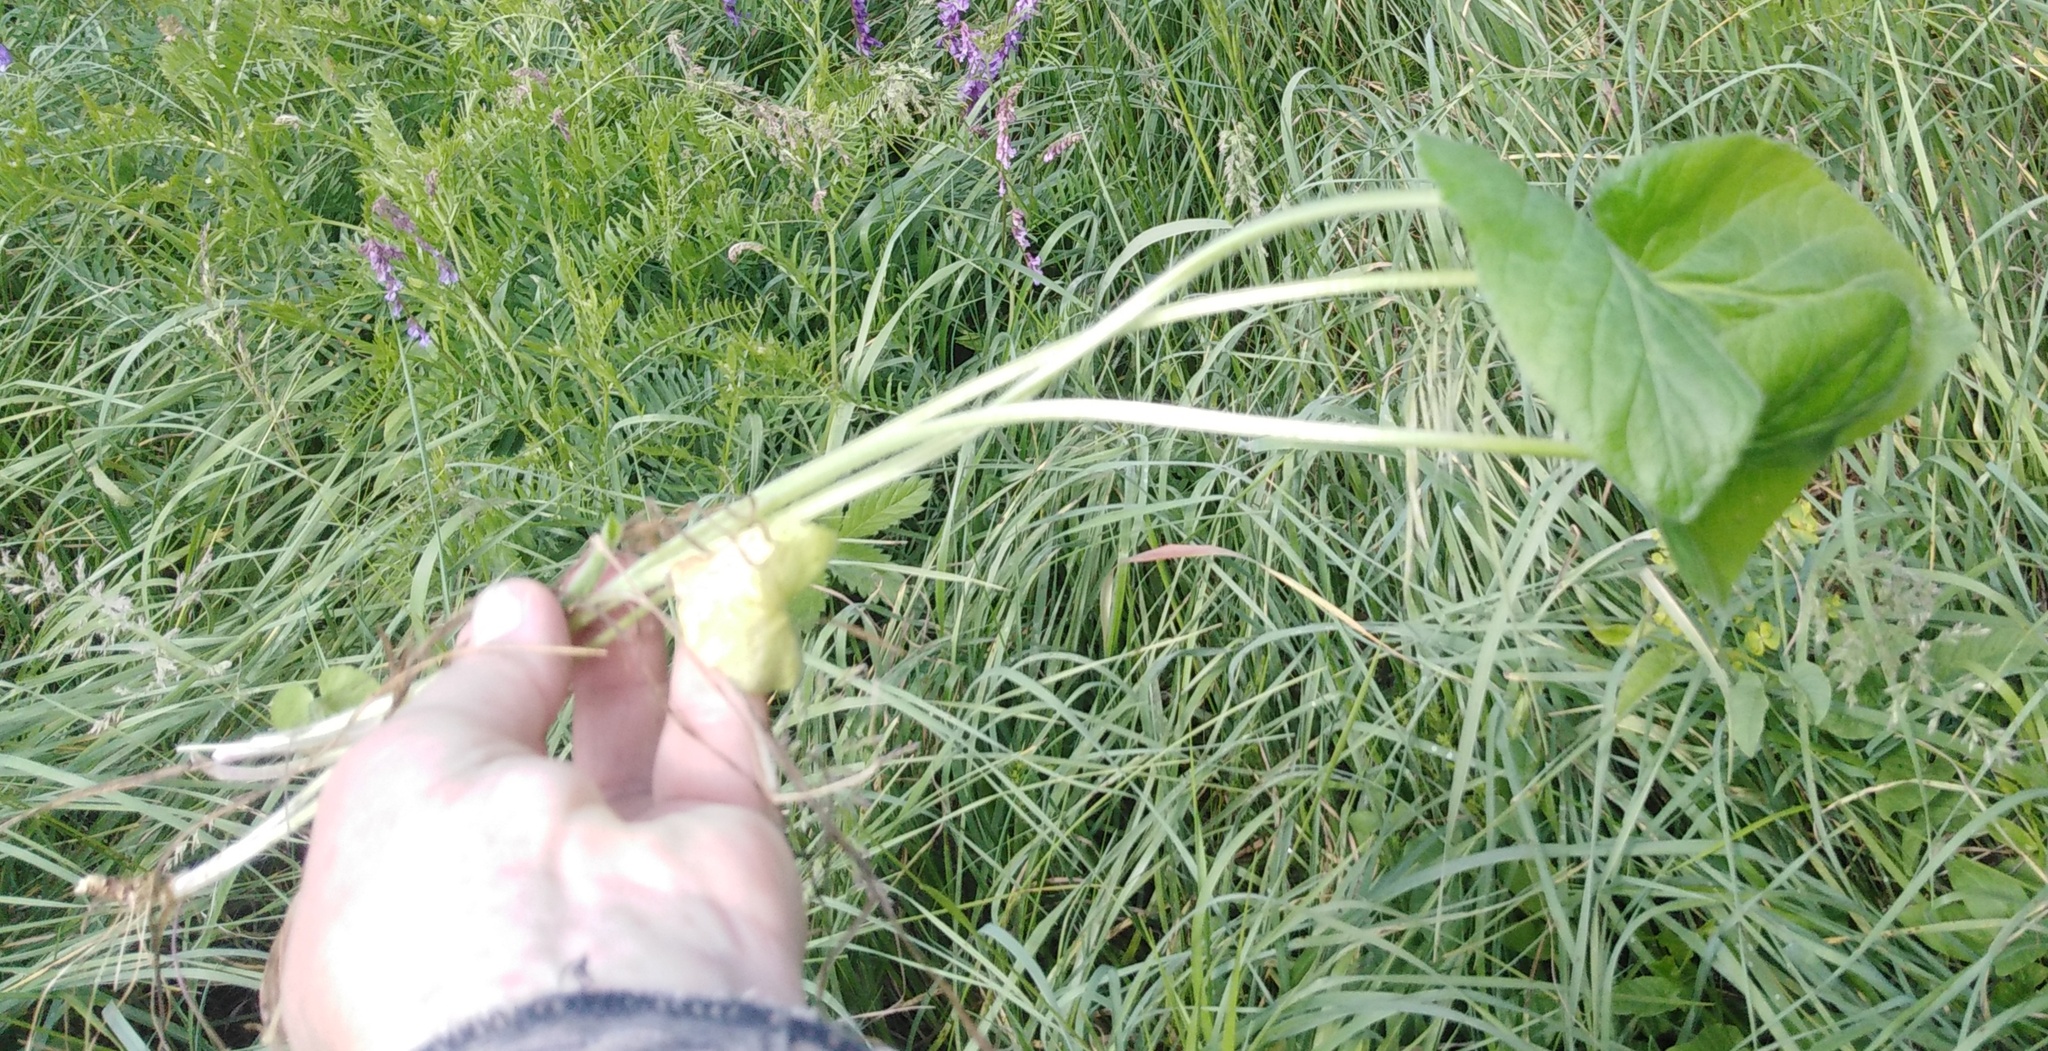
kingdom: Plantae
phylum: Tracheophyta
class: Magnoliopsida
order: Malpighiales
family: Violaceae
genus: Viola
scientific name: Viola hirta
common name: Hairy violet
